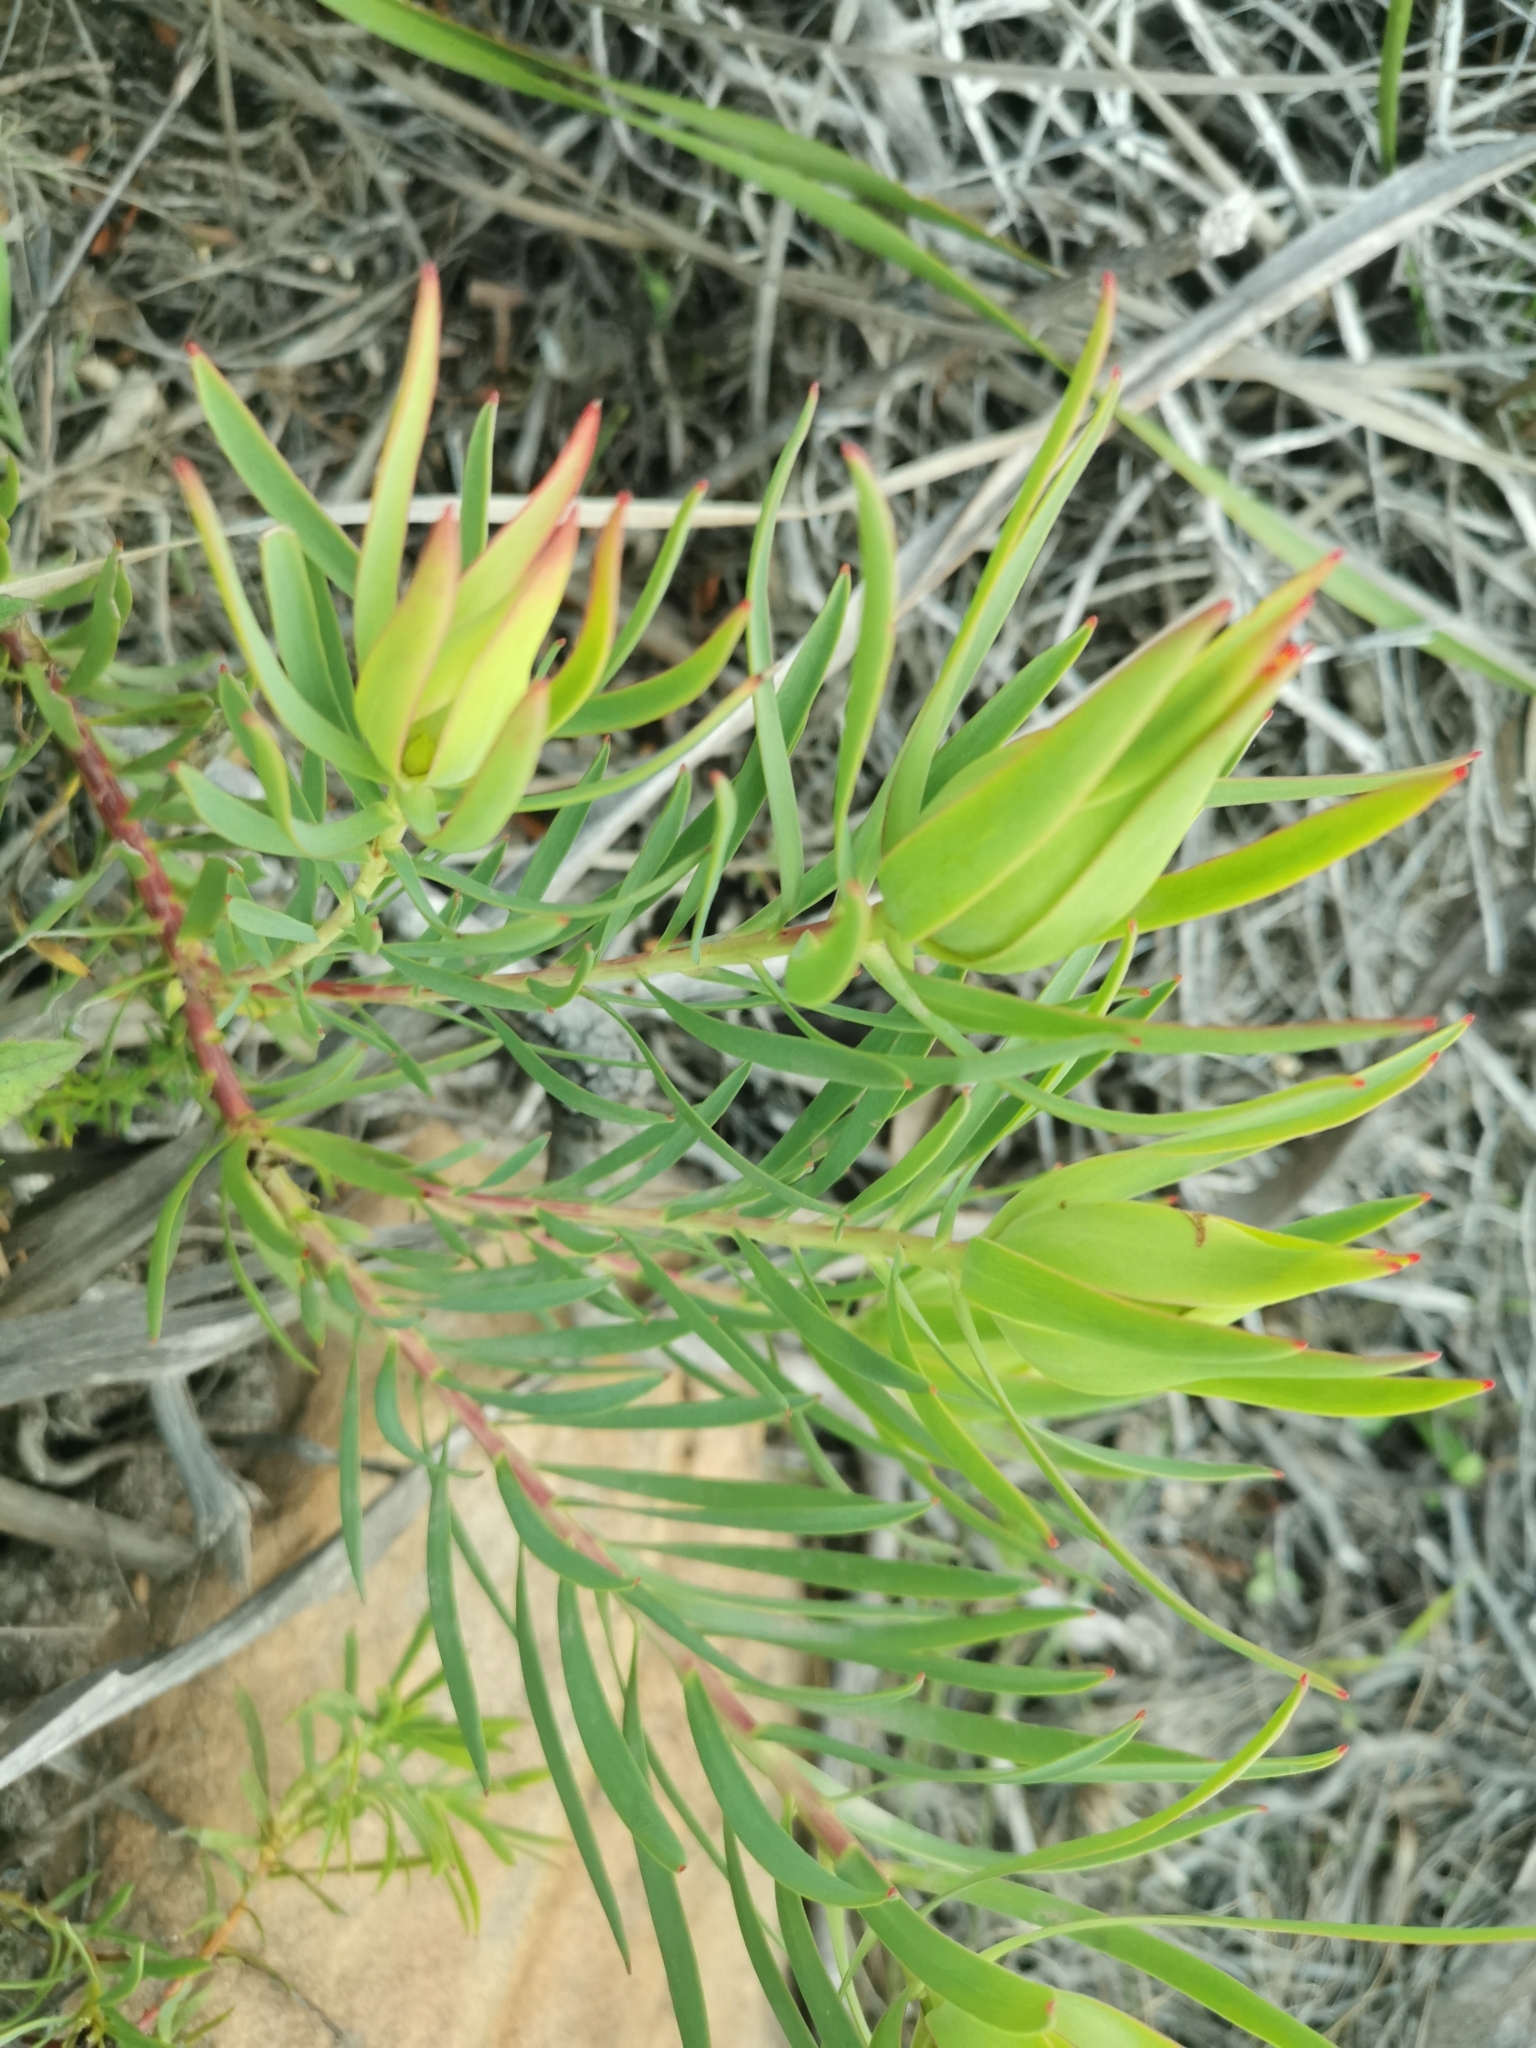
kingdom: Plantae
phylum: Tracheophyta
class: Magnoliopsida
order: Proteales
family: Proteaceae
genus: Leucadendron
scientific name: Leucadendron salignum
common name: Common sunshine conebush
